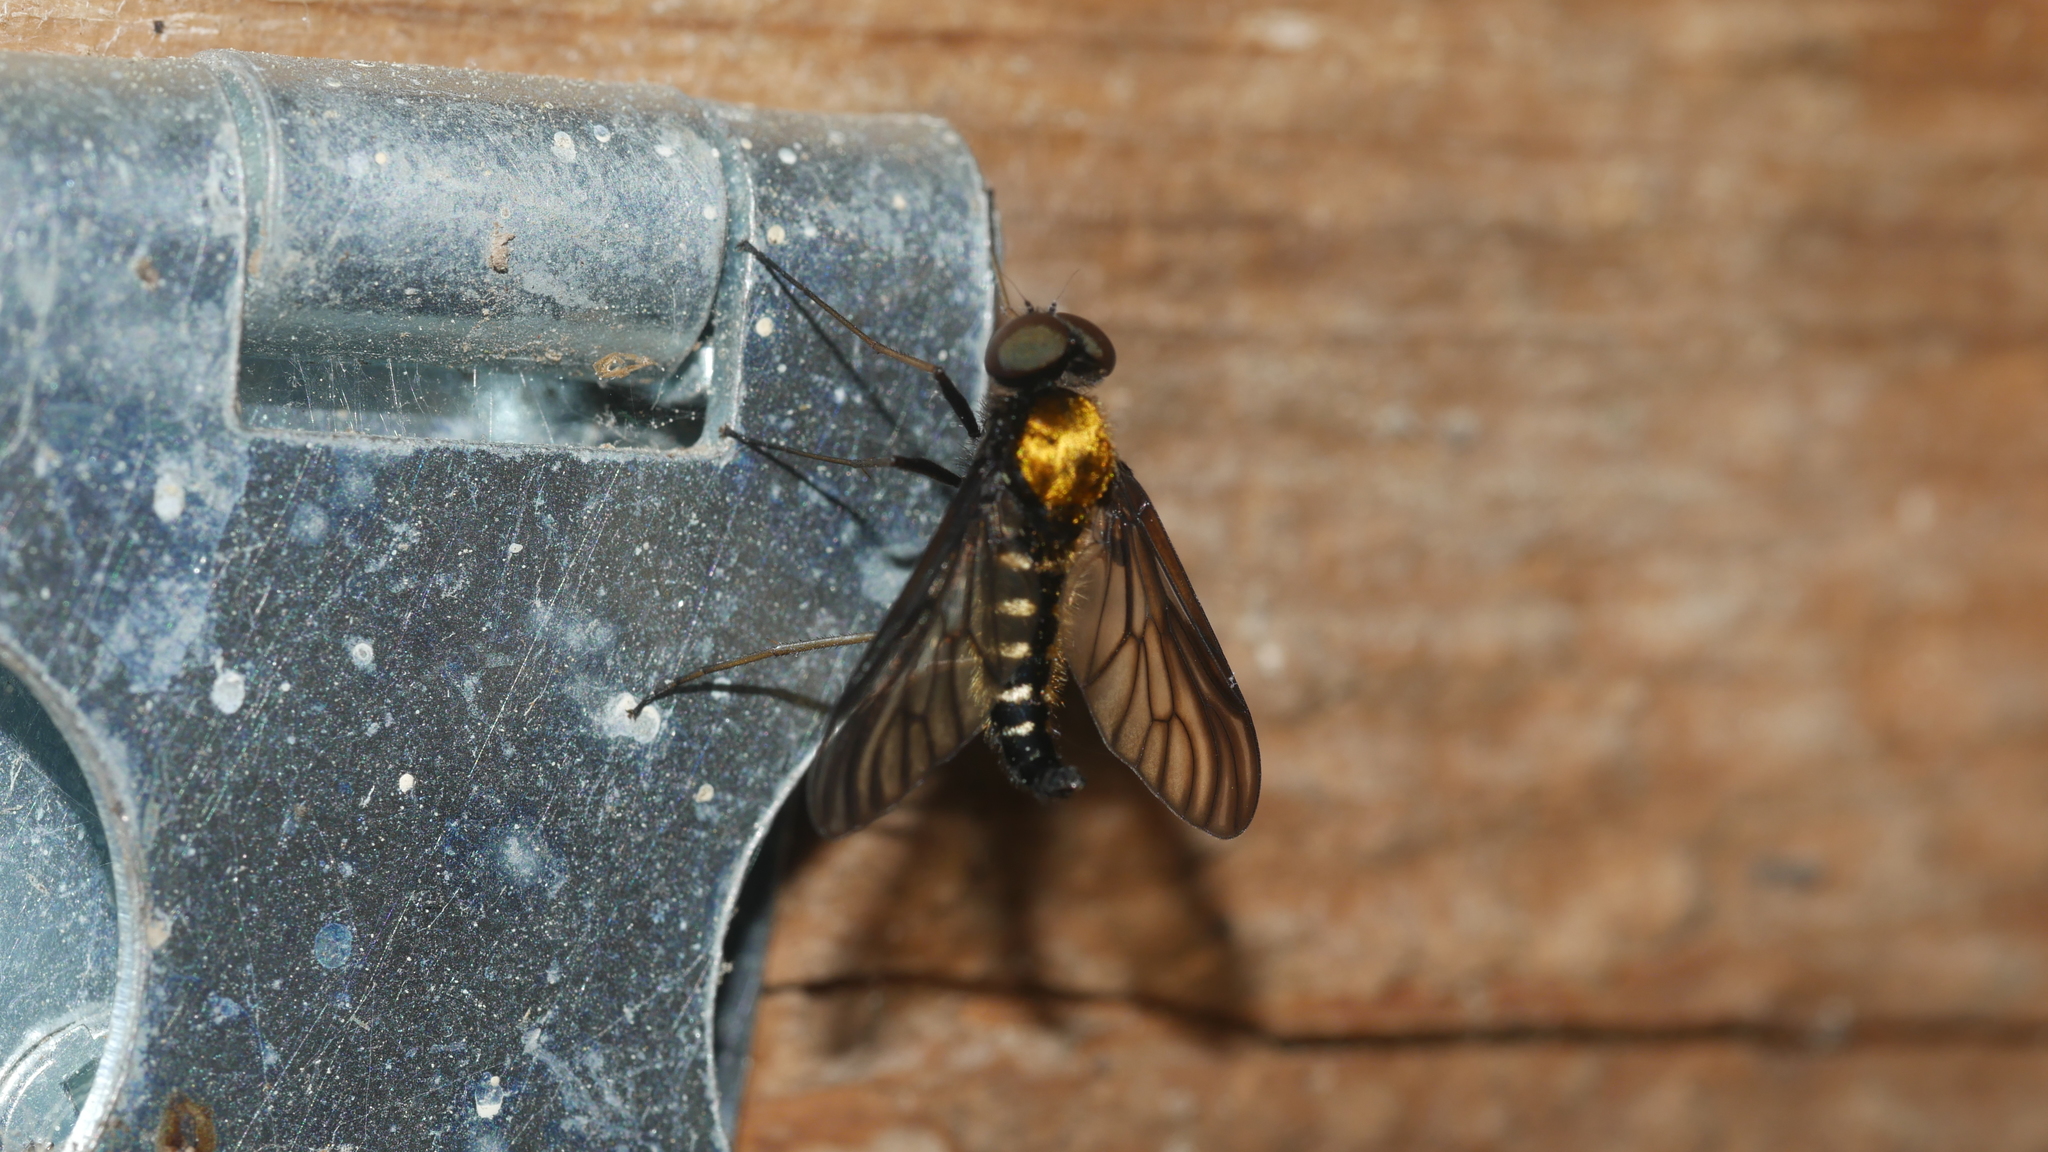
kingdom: Animalia
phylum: Arthropoda
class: Insecta
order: Diptera
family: Rhagionidae
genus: Chrysopilus
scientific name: Chrysopilus thoracicus
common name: Golden-backed snipe fly
